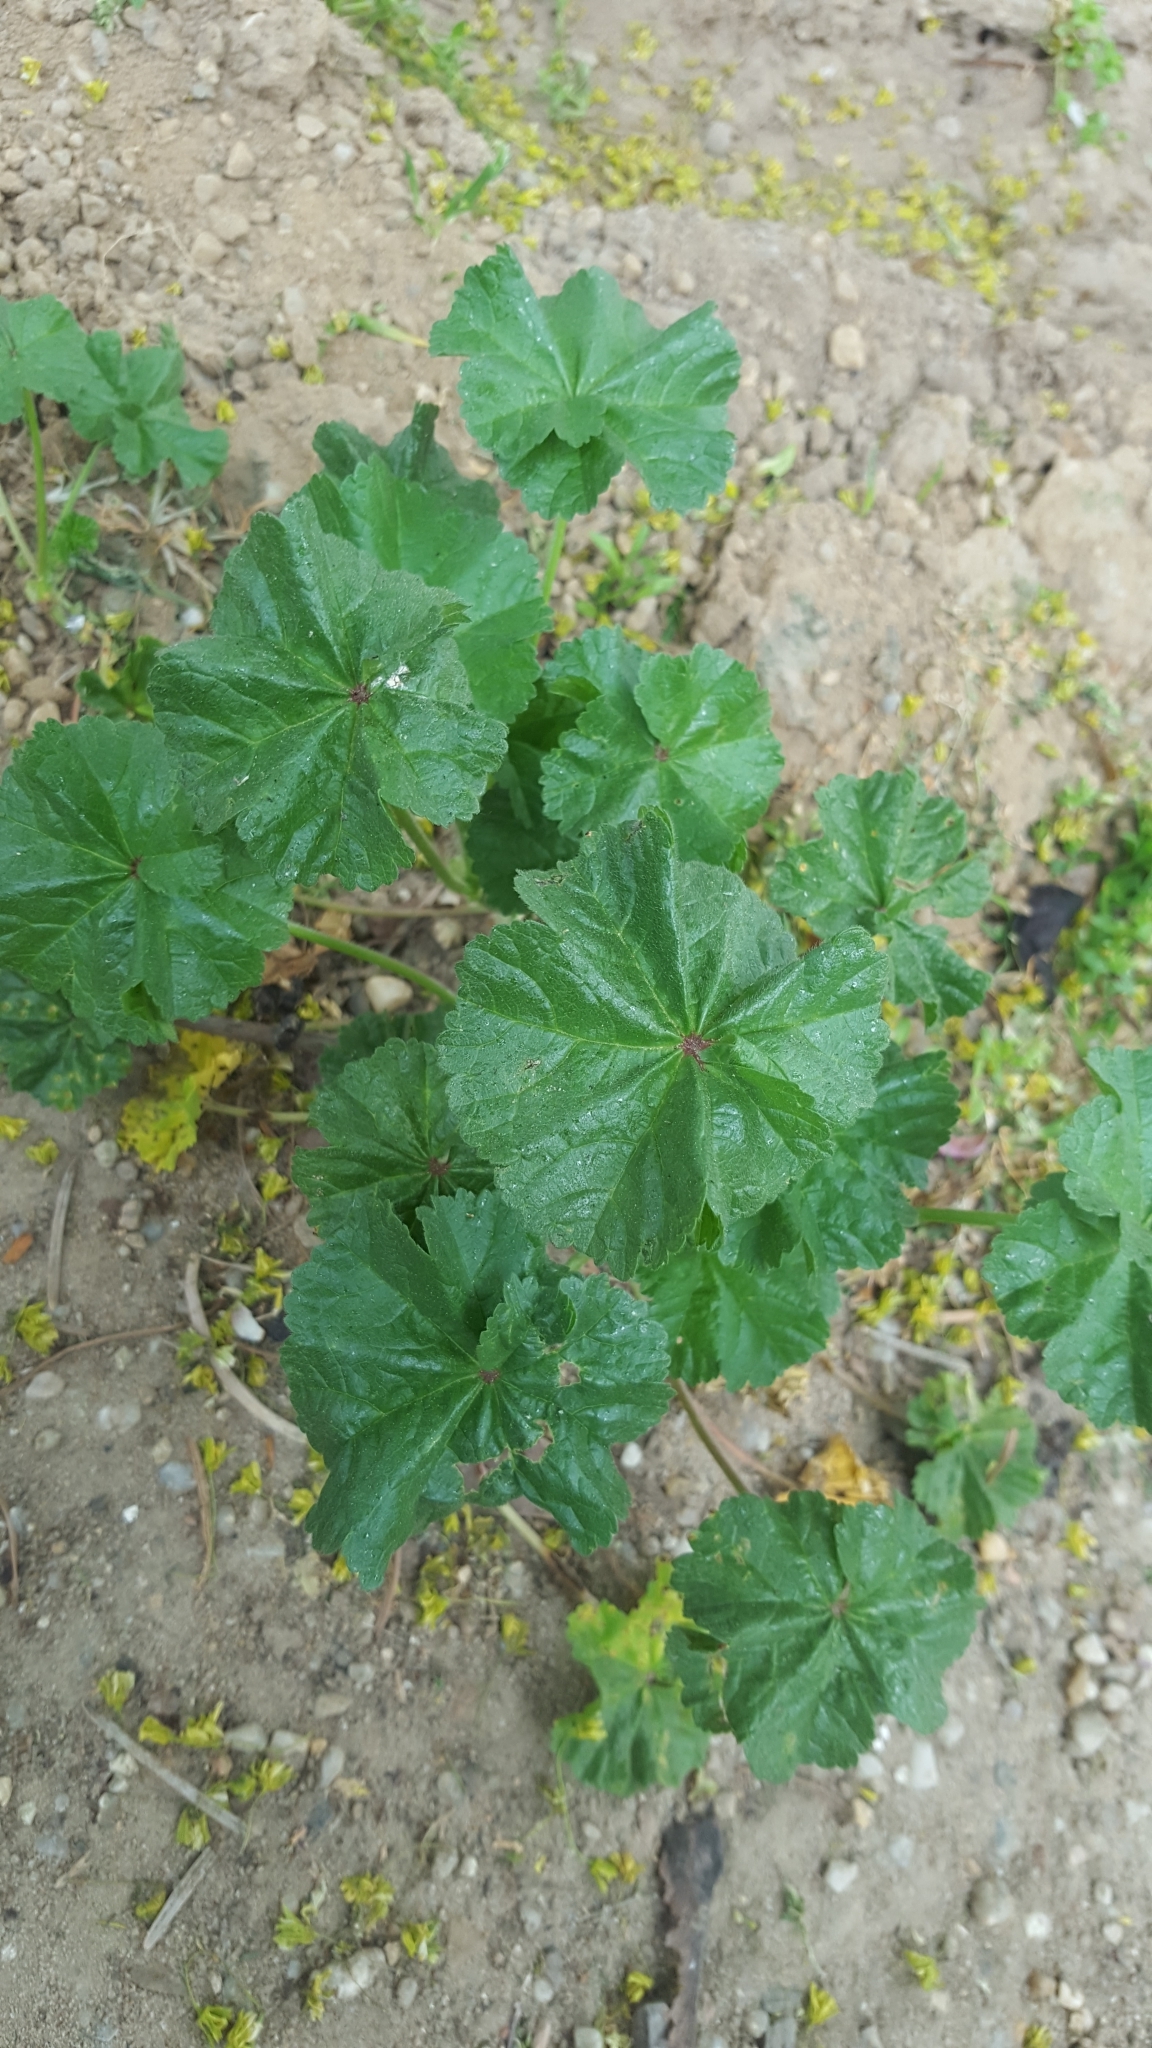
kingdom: Plantae
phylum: Tracheophyta
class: Magnoliopsida
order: Malvales
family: Malvaceae
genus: Malva
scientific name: Malva sylvestris
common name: Common mallow
